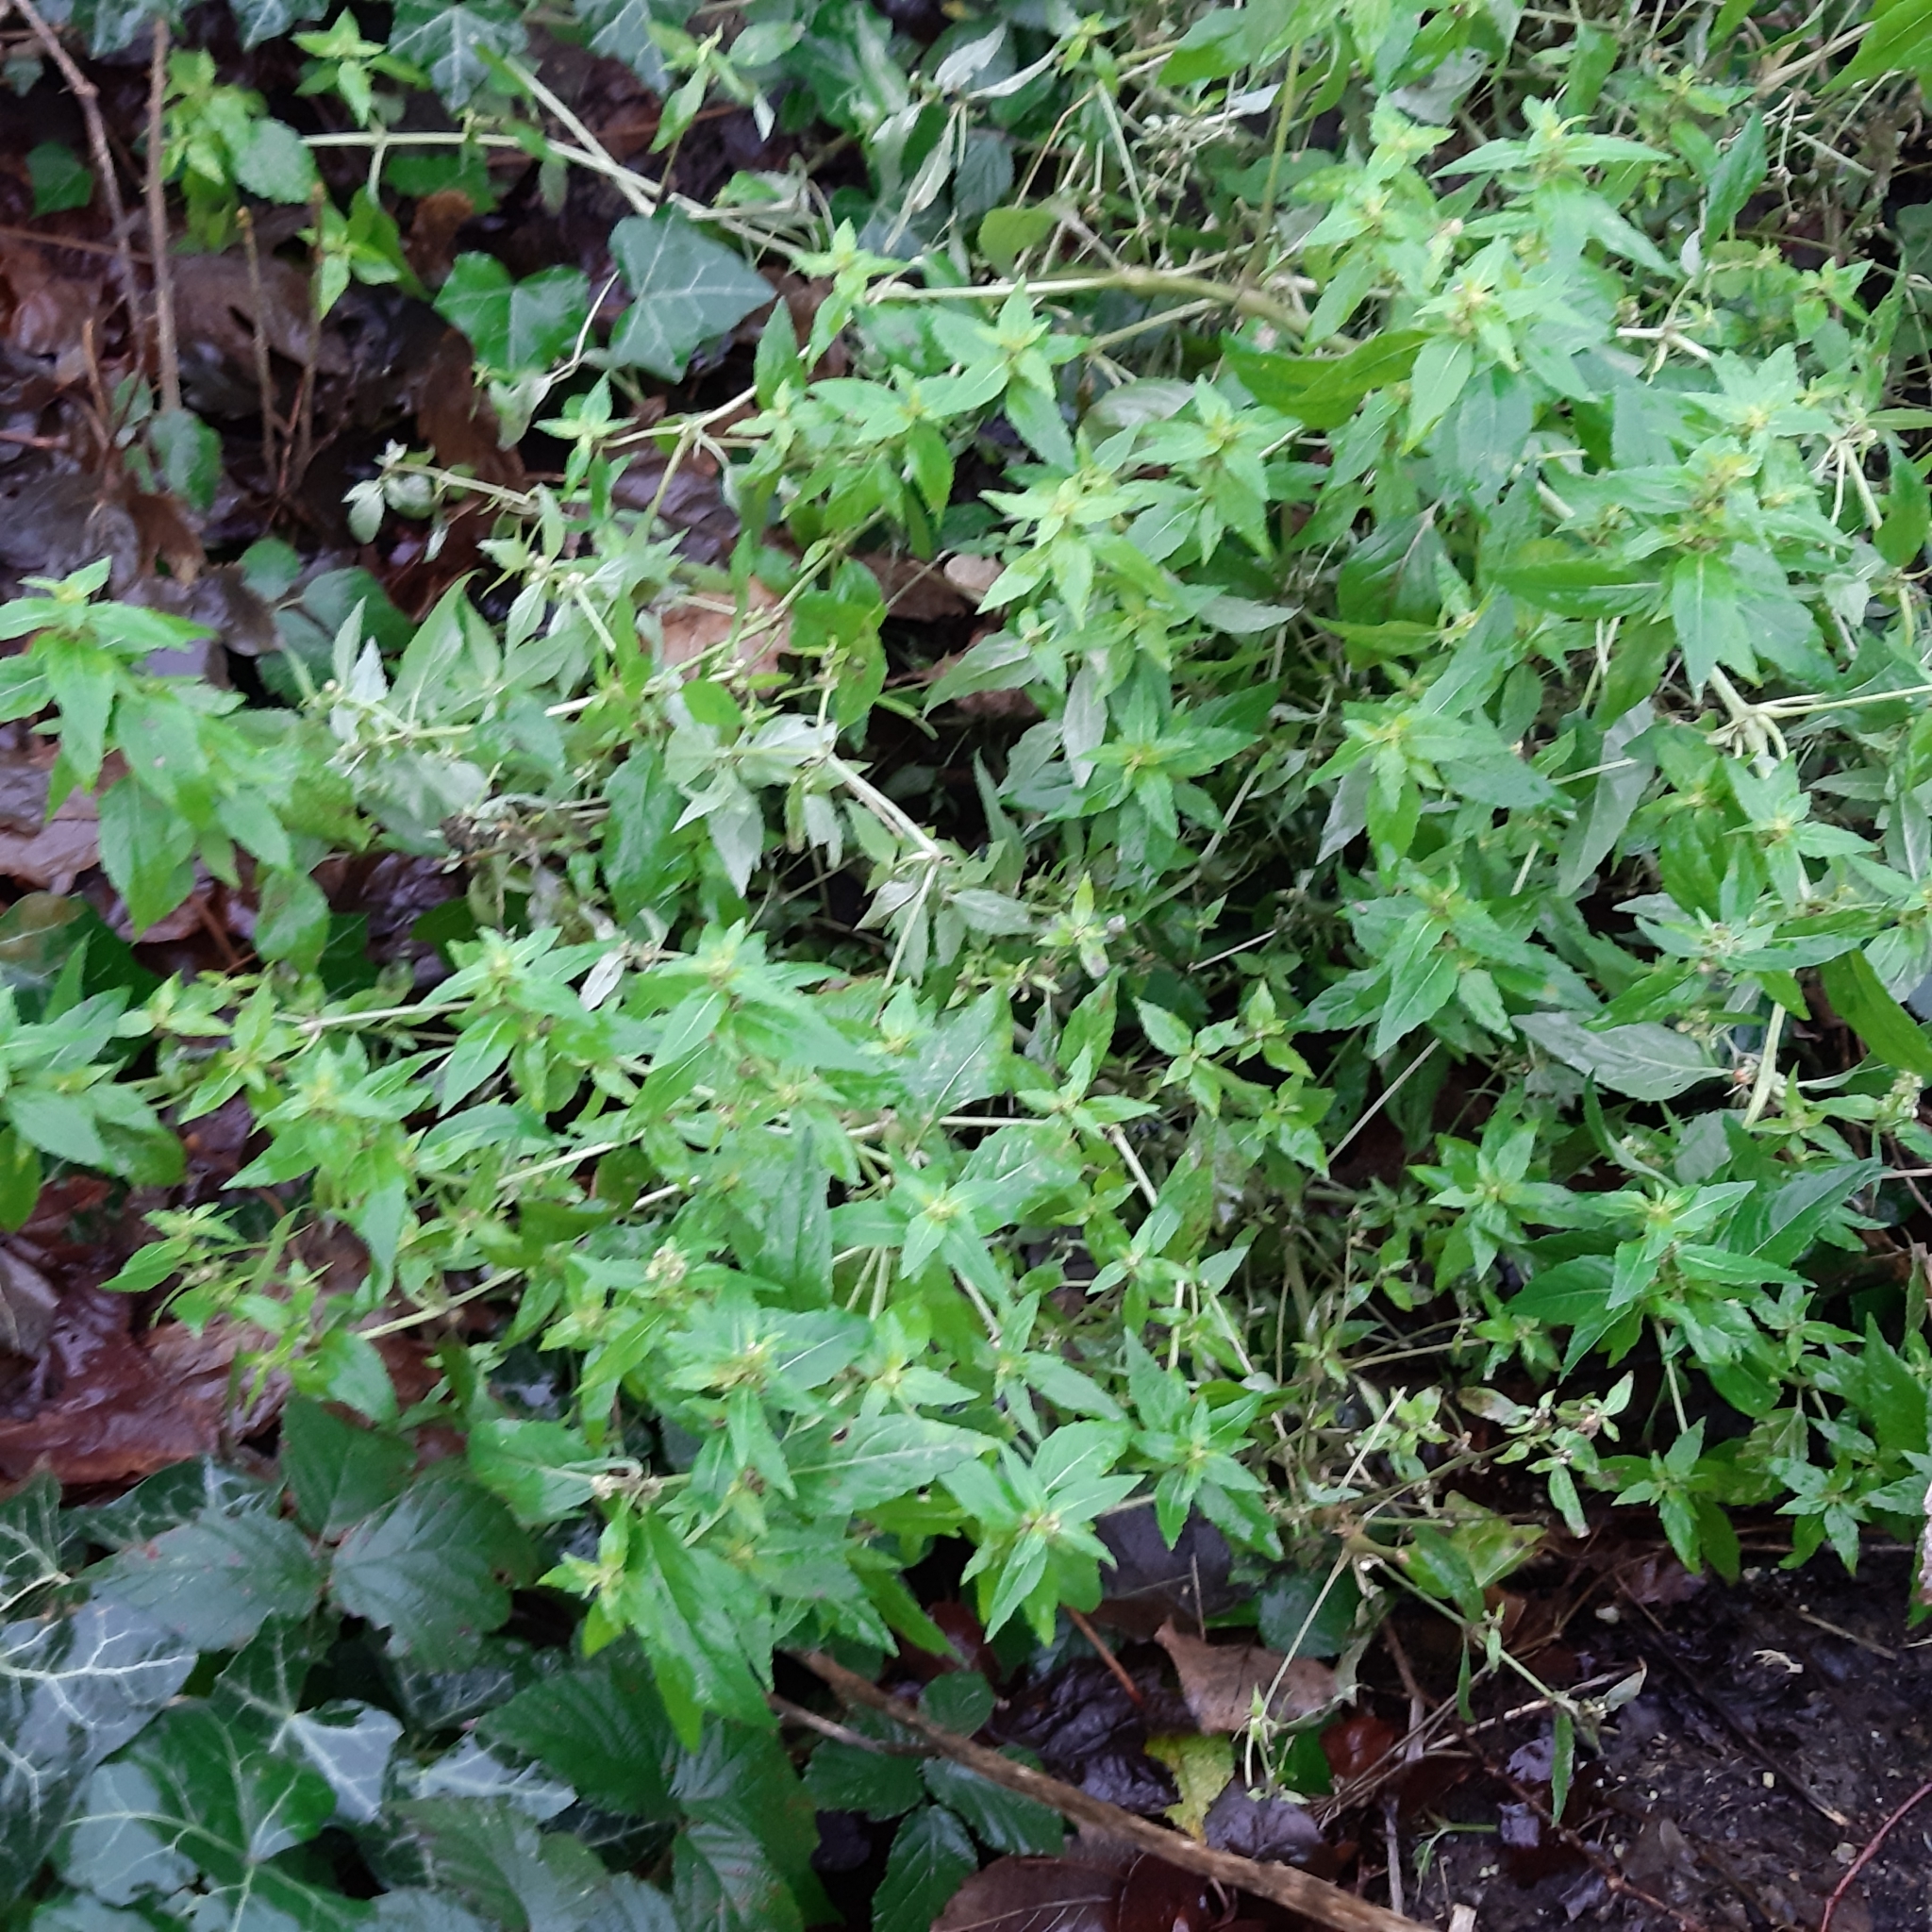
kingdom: Plantae
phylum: Tracheophyta
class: Magnoliopsida
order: Malpighiales
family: Euphorbiaceae
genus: Mercurialis
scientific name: Mercurialis annua
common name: Annual mercury
